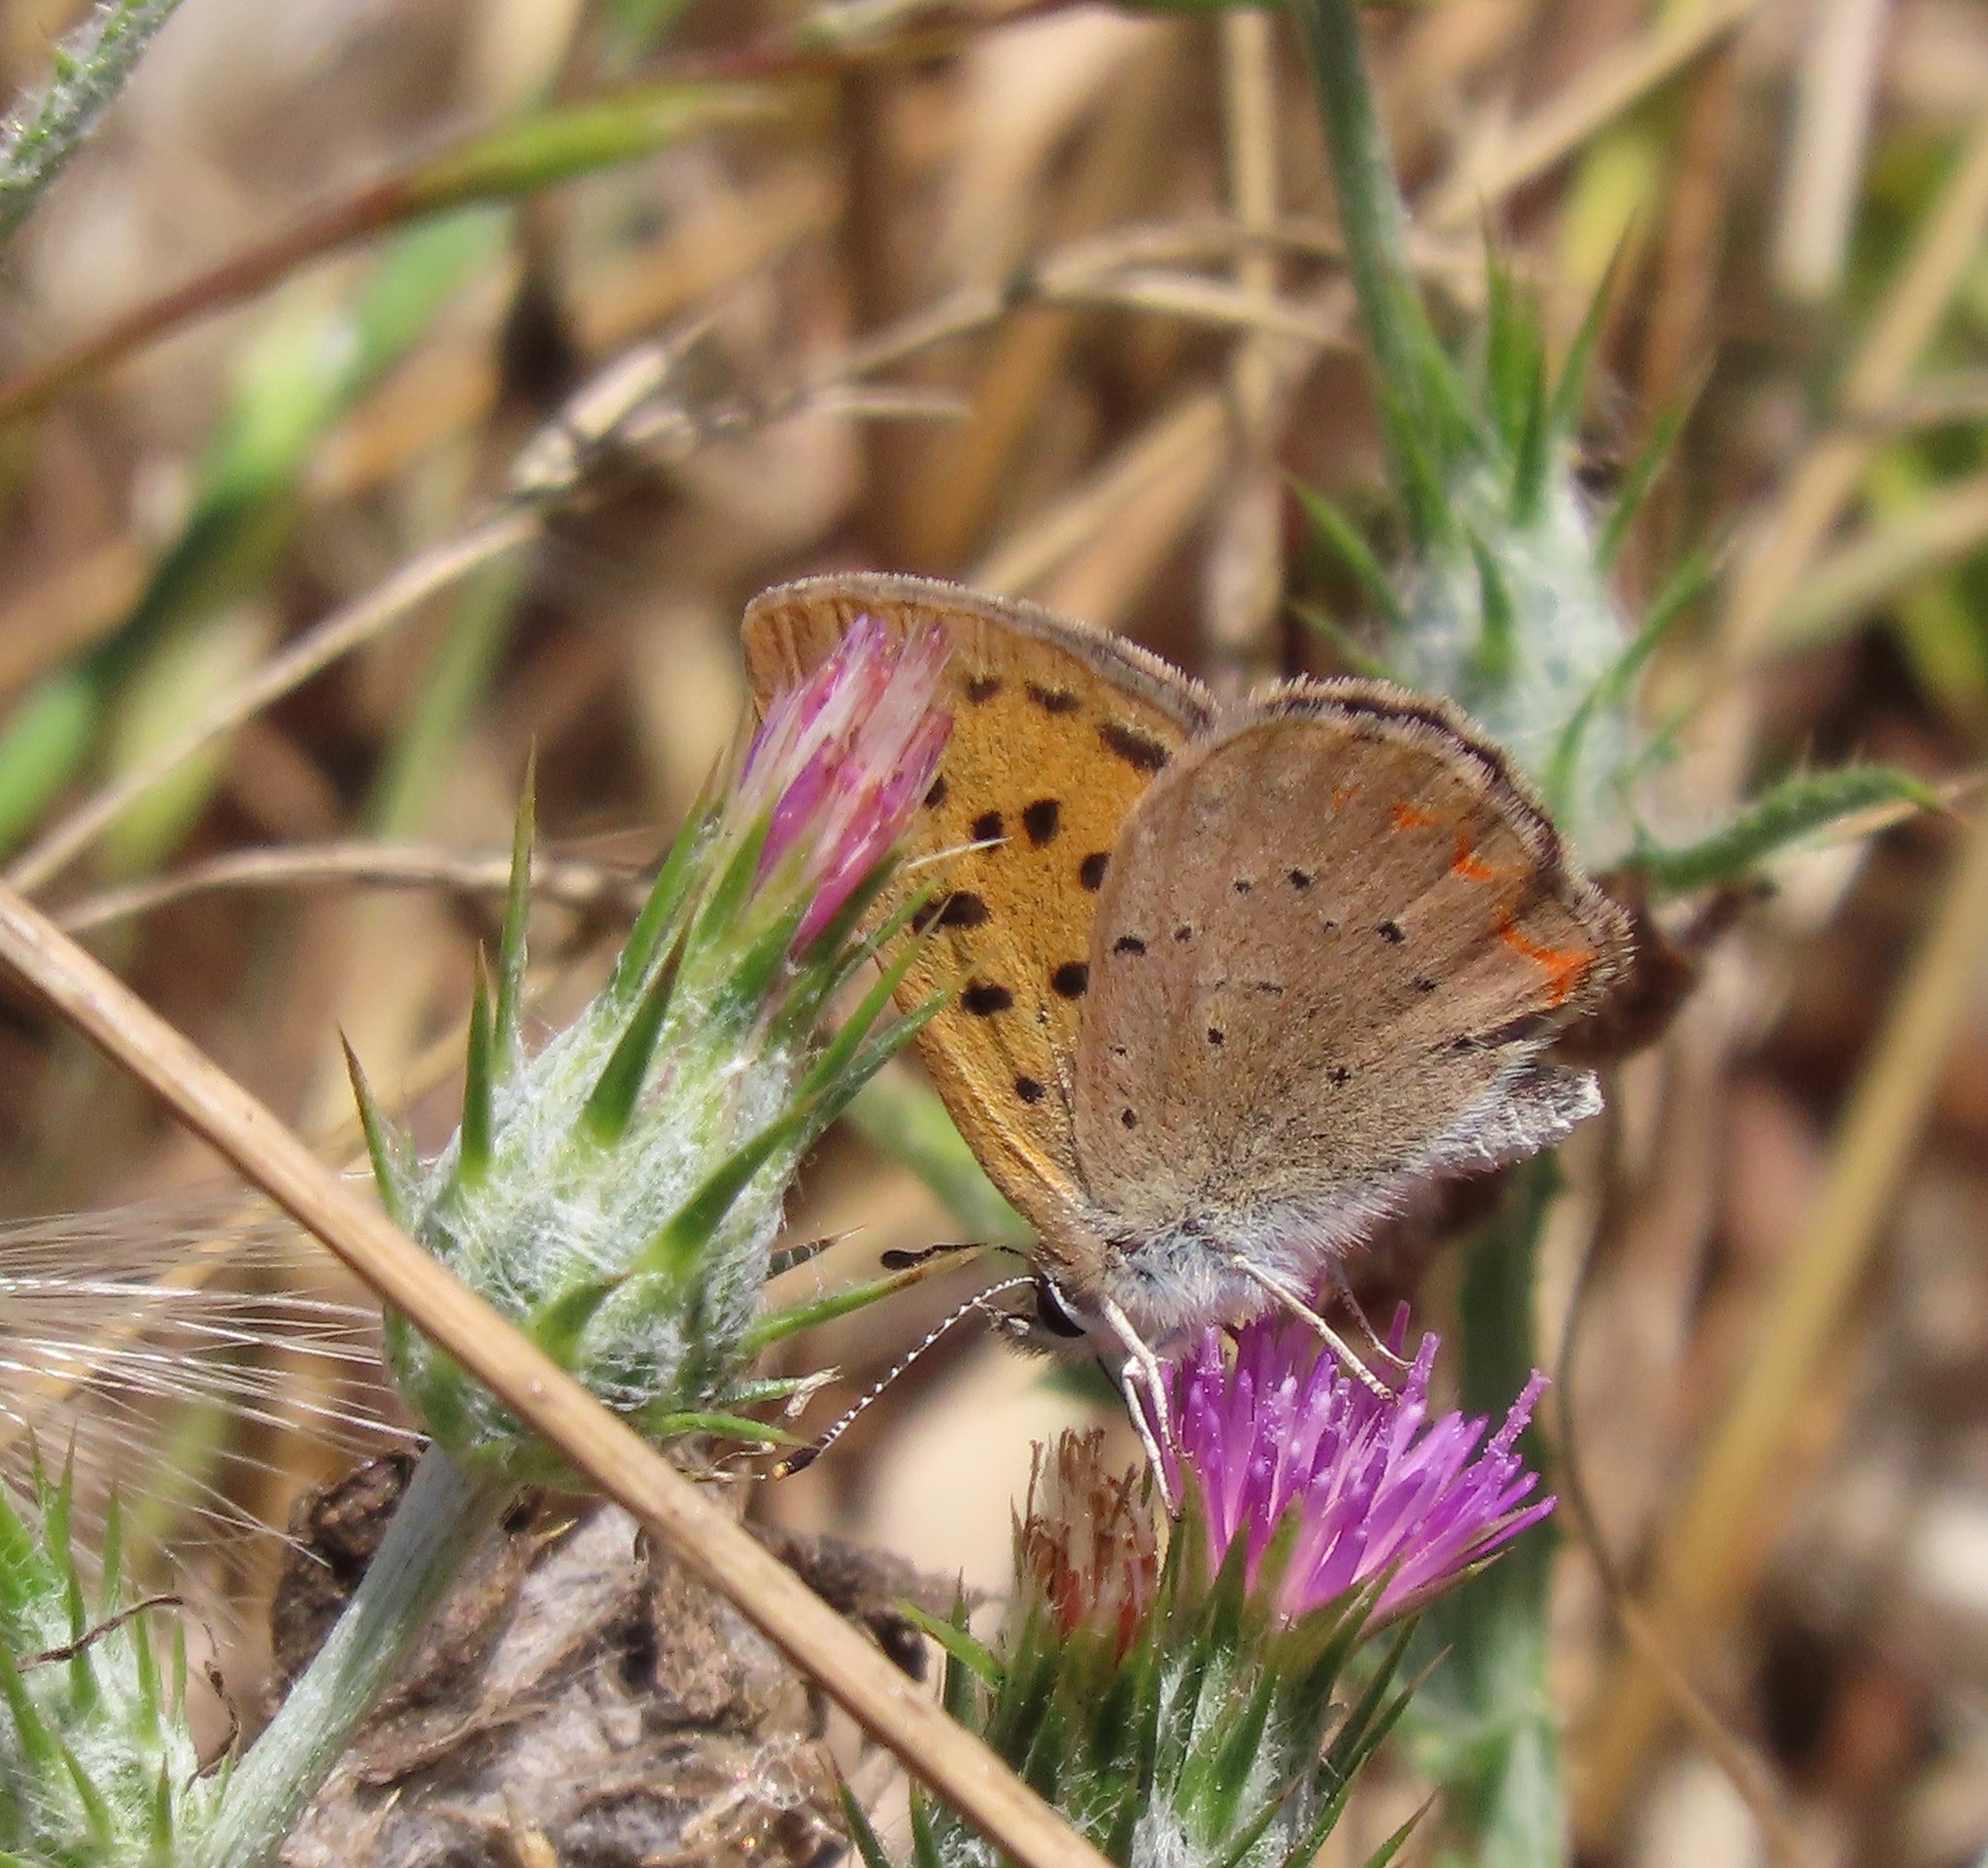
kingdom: Animalia
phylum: Arthropoda
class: Insecta
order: Lepidoptera
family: Lycaenidae
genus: Tharsalea
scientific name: Tharsalea helloides
